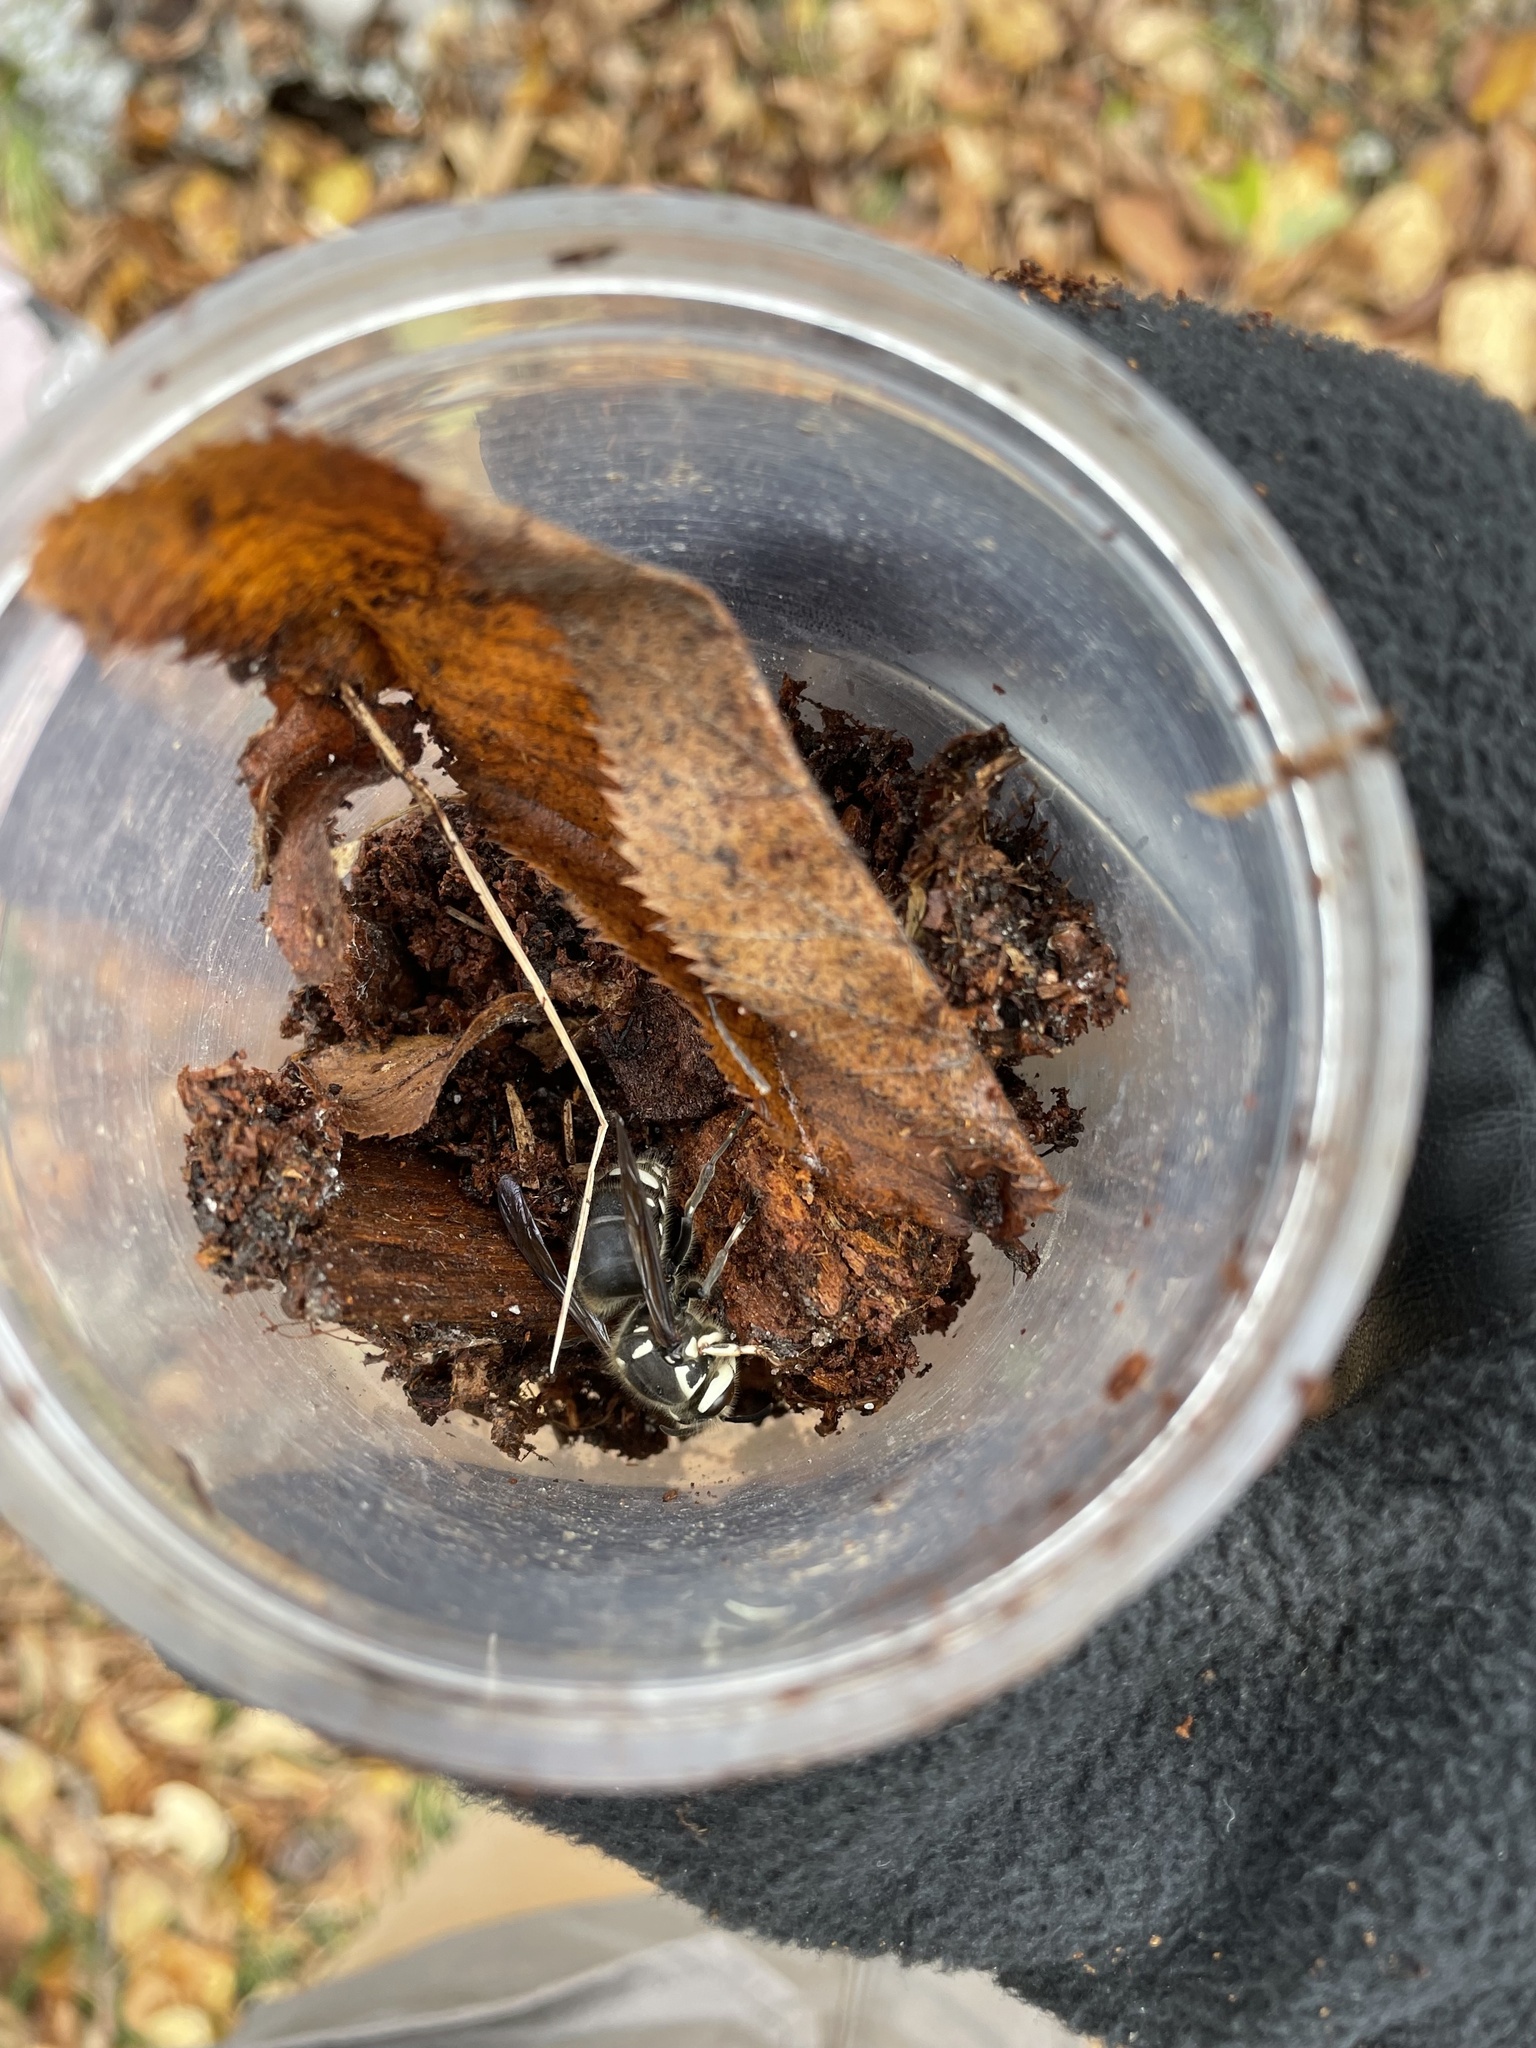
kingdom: Animalia
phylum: Arthropoda
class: Insecta
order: Hymenoptera
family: Vespidae
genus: Dolichovespula
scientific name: Dolichovespula maculata
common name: Bald-faced hornet
